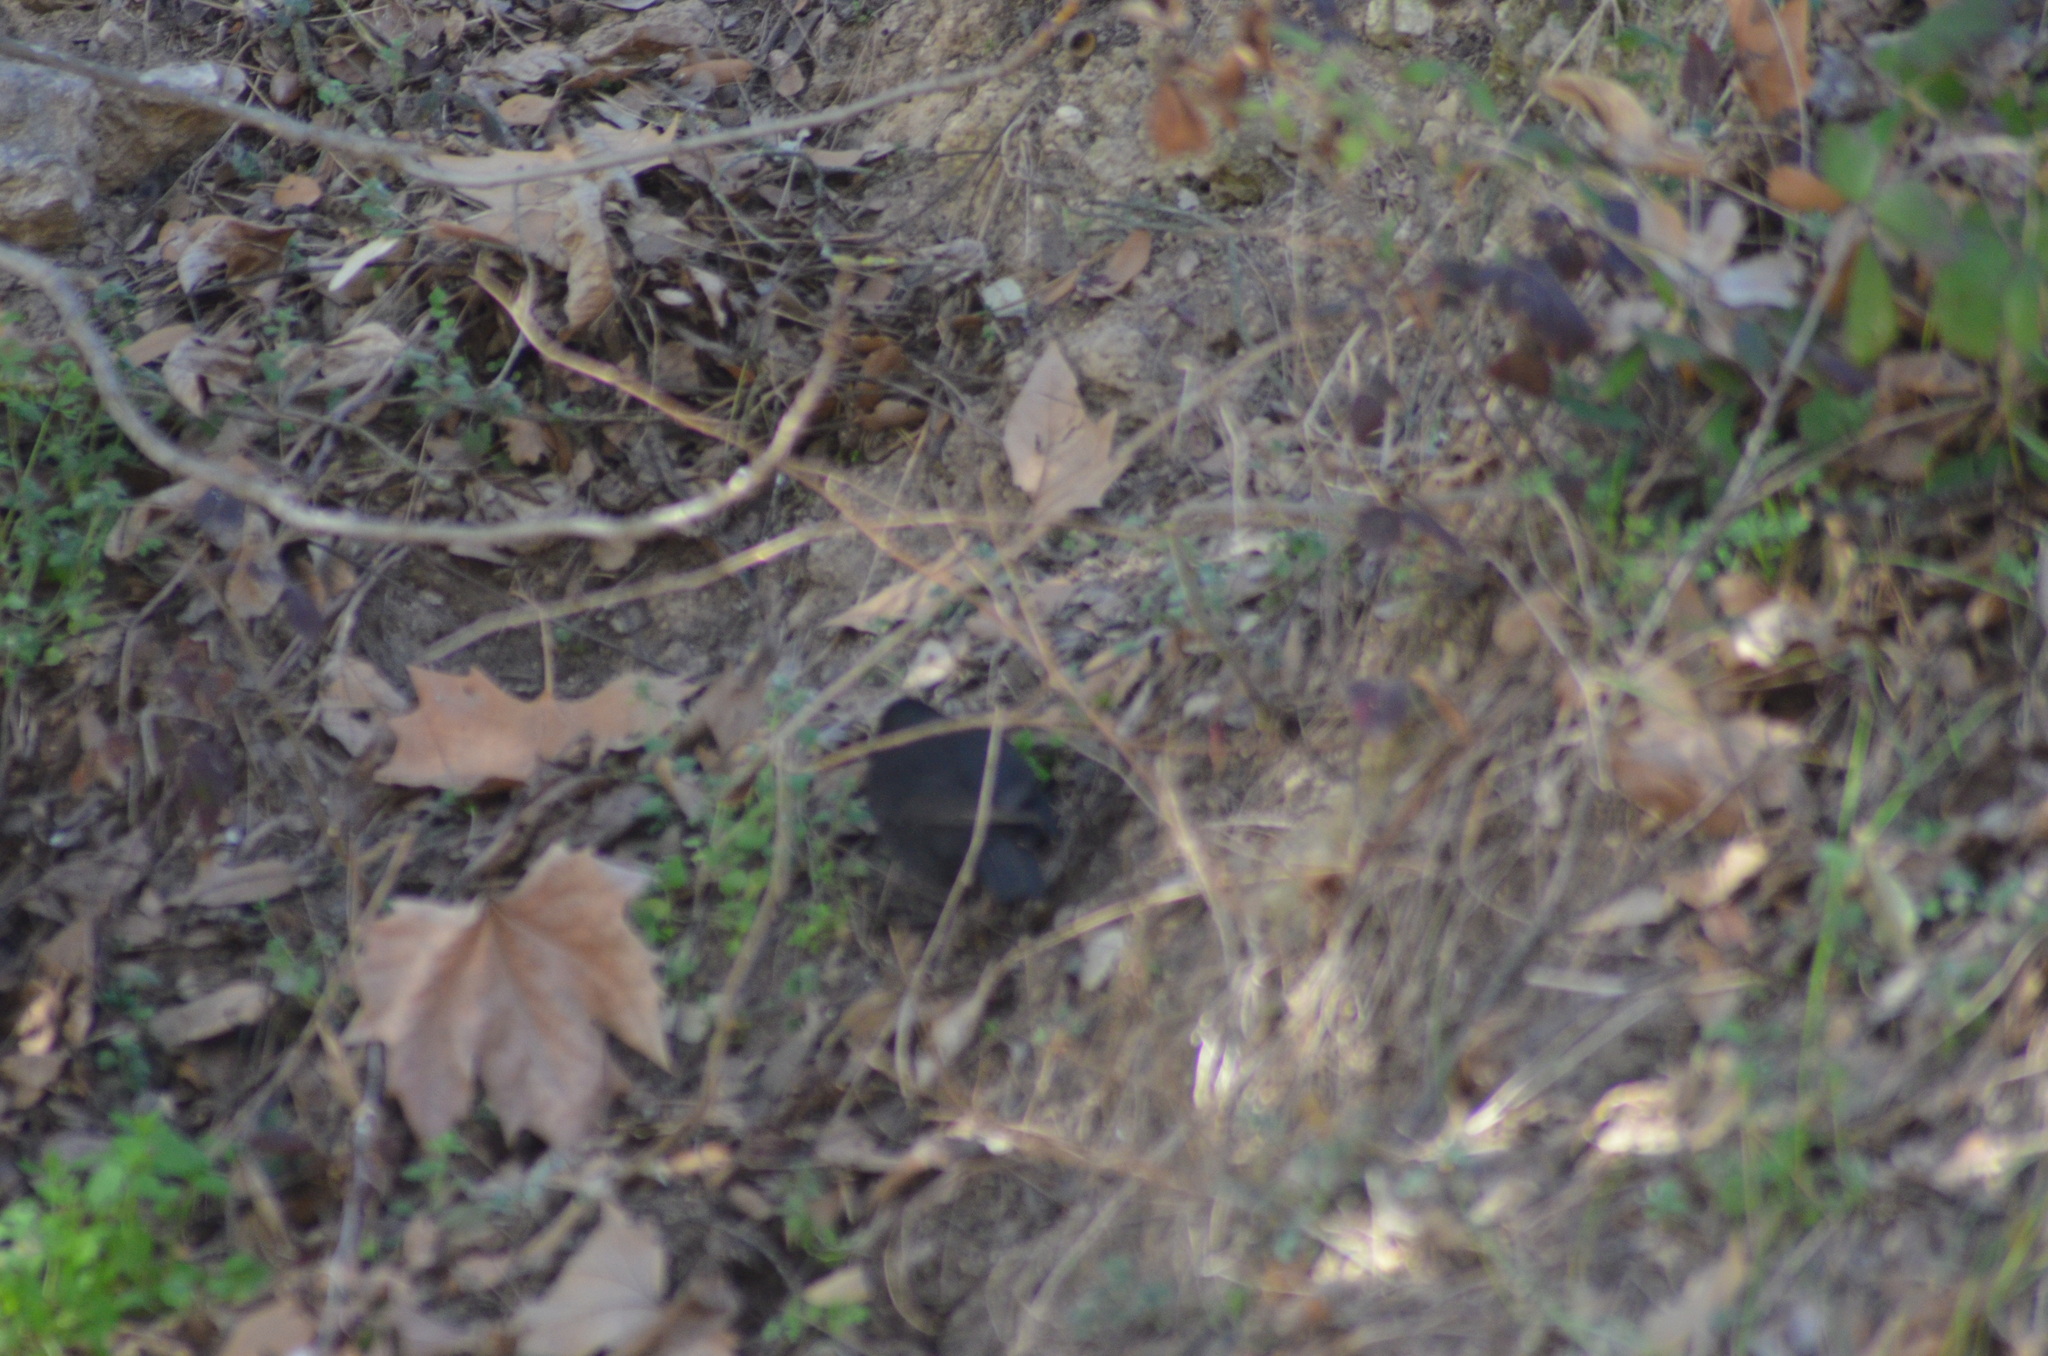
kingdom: Animalia
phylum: Chordata
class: Aves
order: Passeriformes
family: Turdidae
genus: Turdus
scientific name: Turdus merula
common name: Common blackbird
